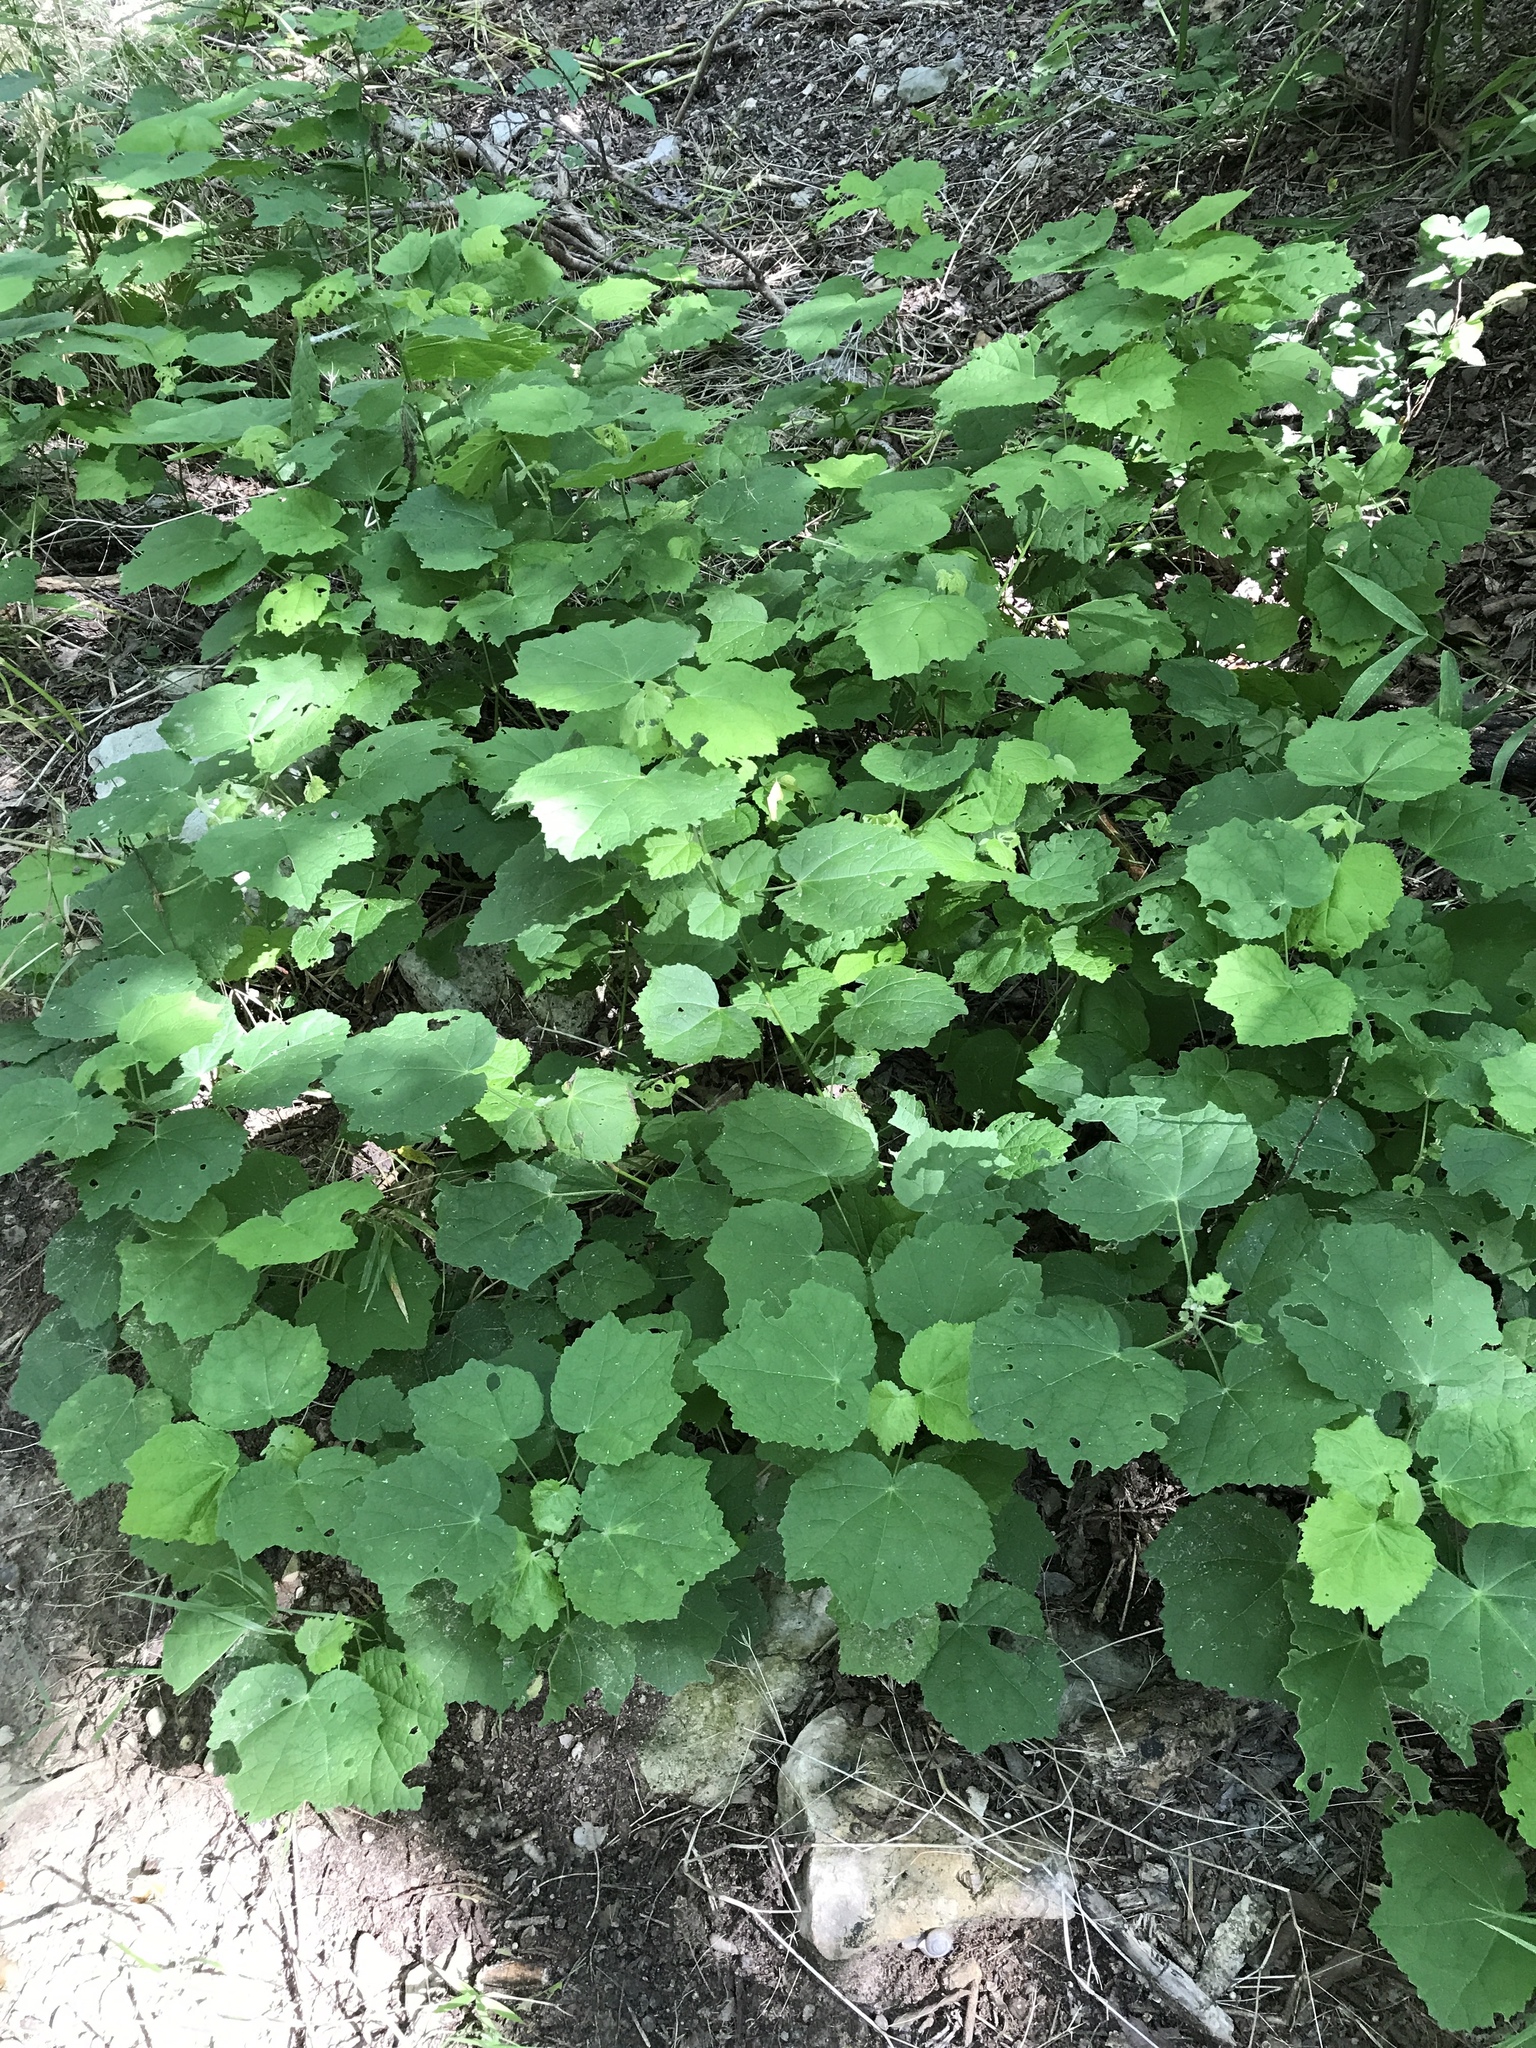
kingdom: Plantae
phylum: Tracheophyta
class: Magnoliopsida
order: Malvales
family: Malvaceae
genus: Malvaviscus
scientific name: Malvaviscus arboreus
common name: Wax mallow
